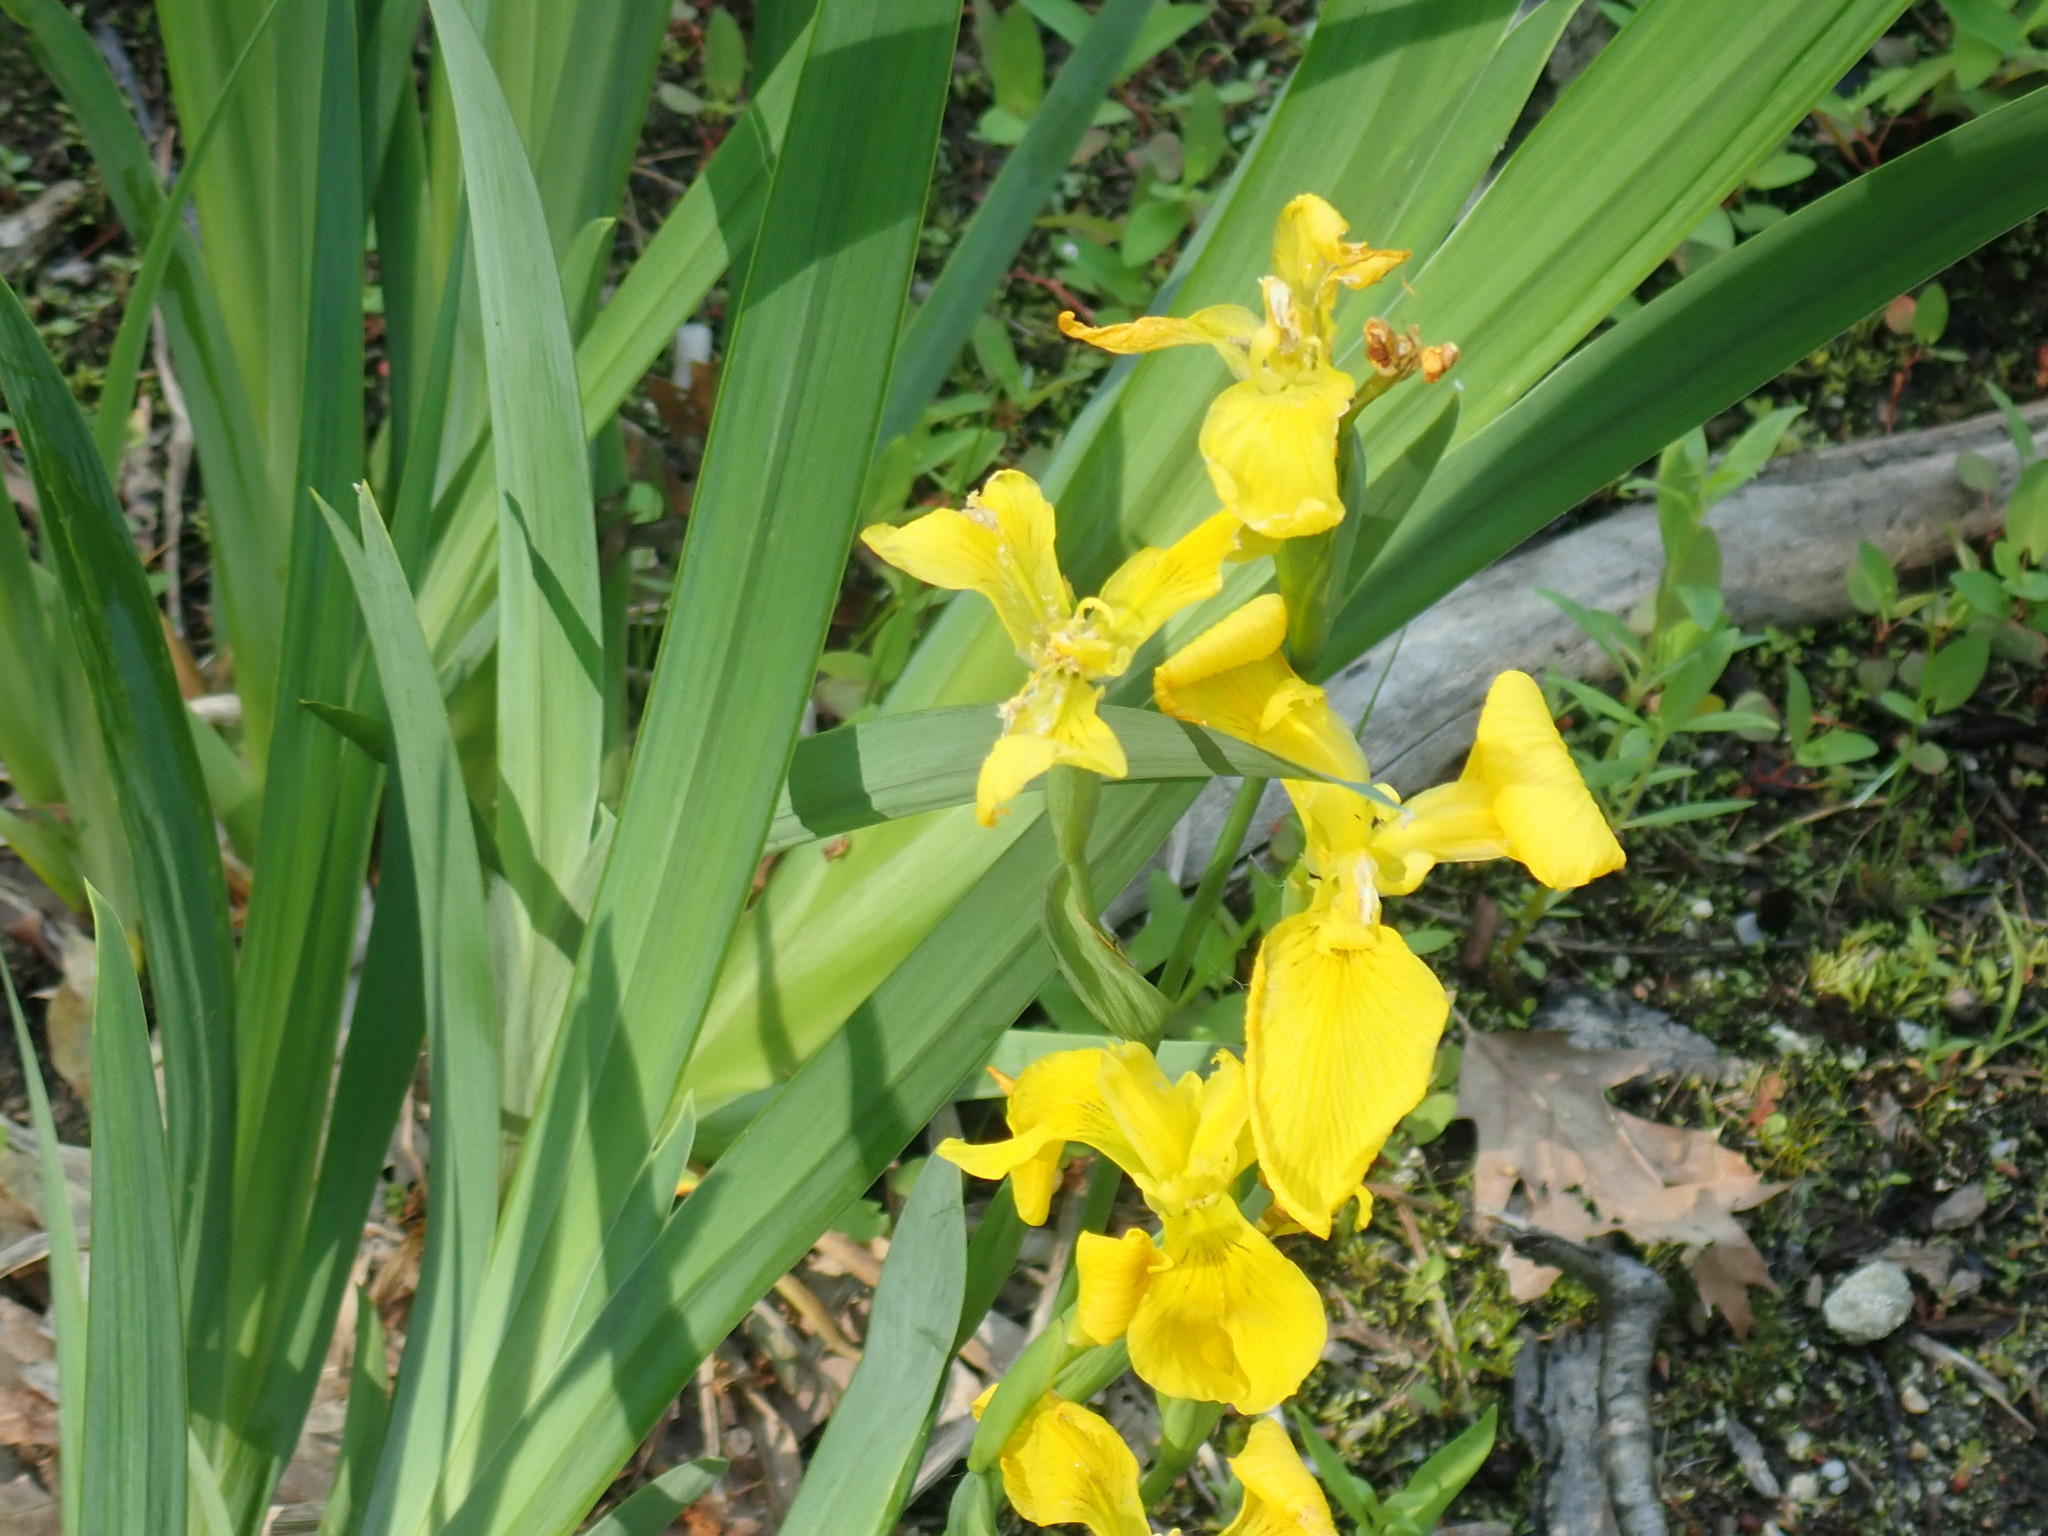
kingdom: Plantae
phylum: Tracheophyta
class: Liliopsida
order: Asparagales
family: Iridaceae
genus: Iris
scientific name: Iris pseudacorus
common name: Yellow flag
